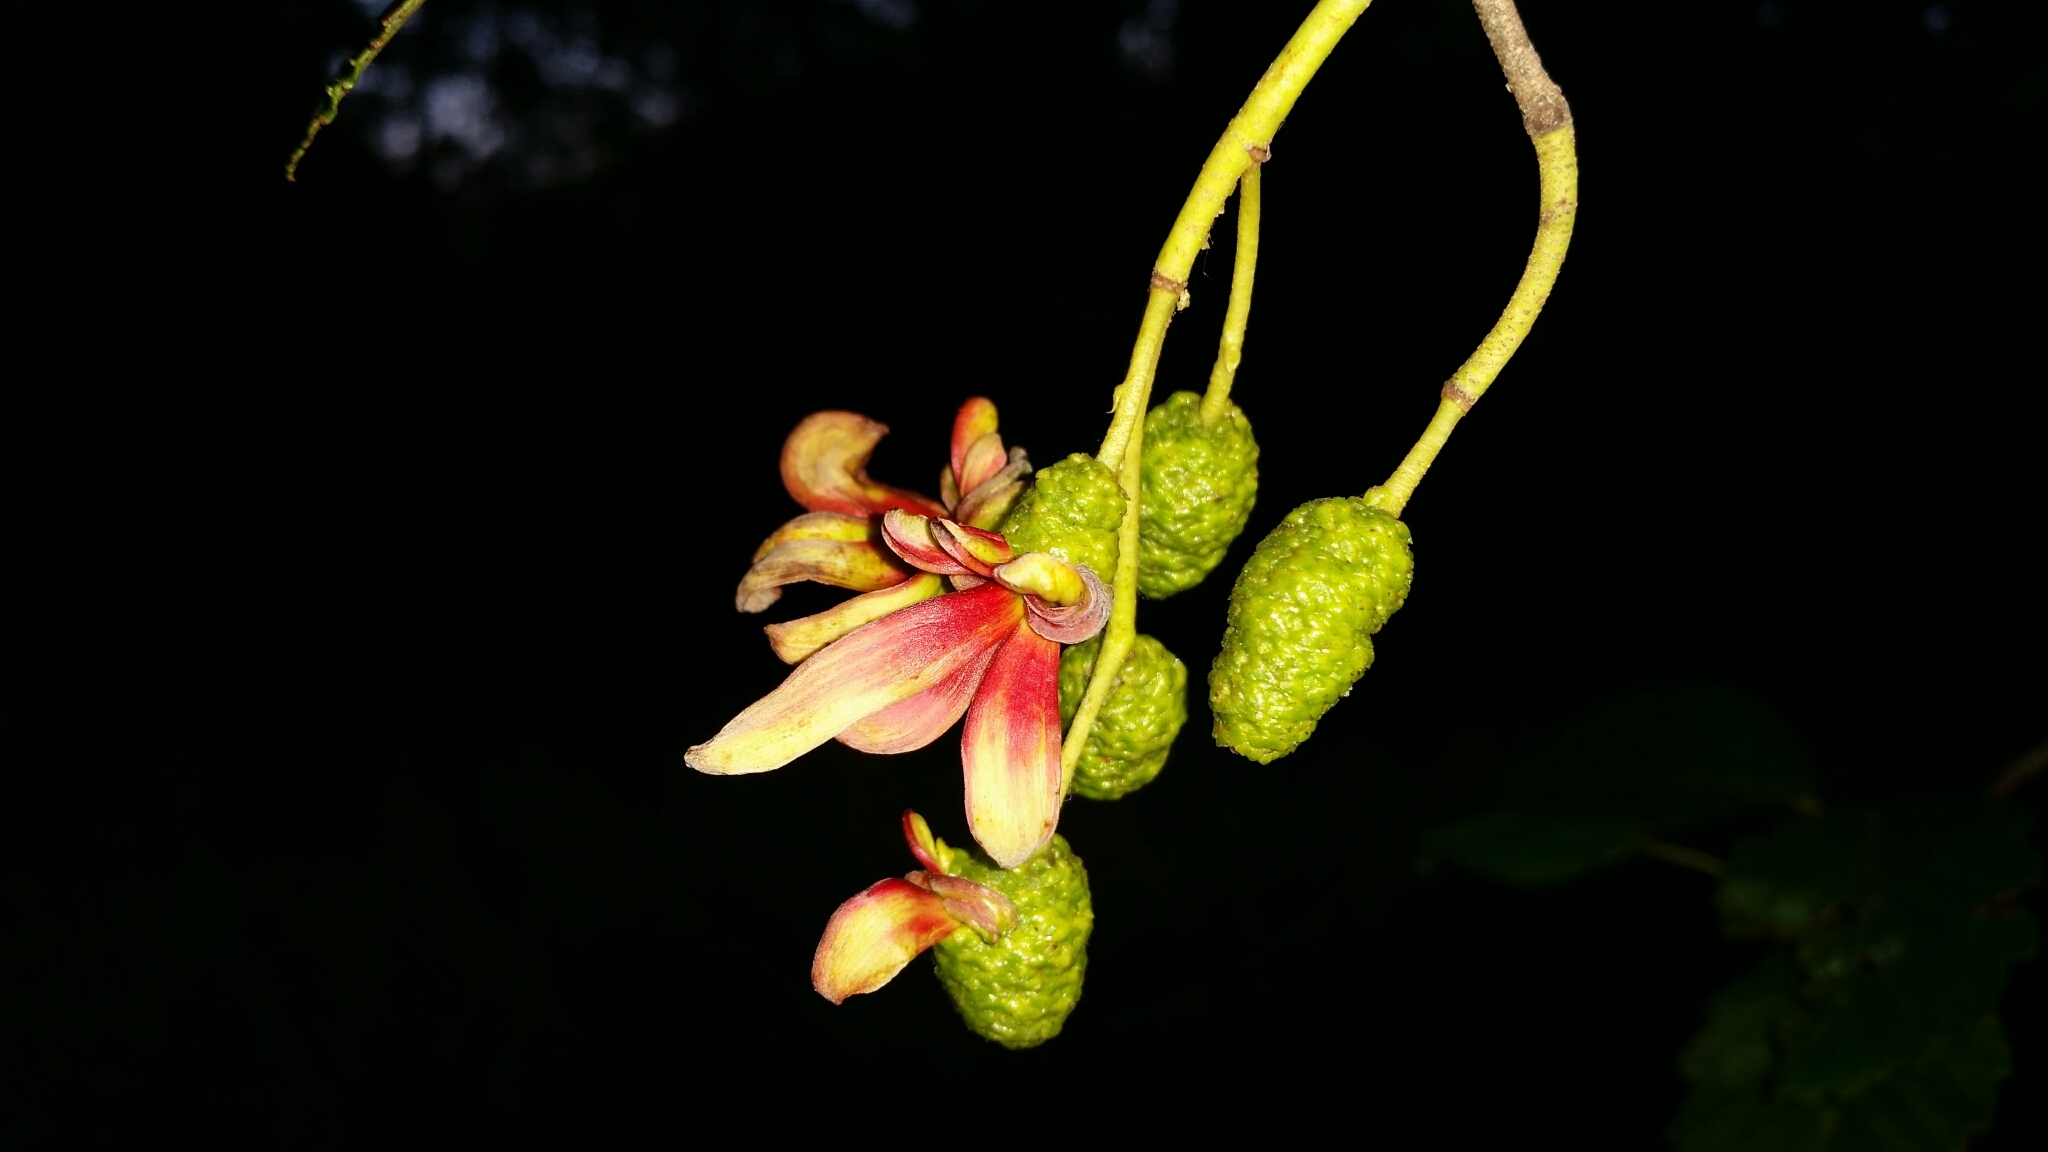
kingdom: Plantae
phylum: Tracheophyta
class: Magnoliopsida
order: Fagales
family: Betulaceae
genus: Alnus
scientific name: Alnus rubra
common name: Red alder
